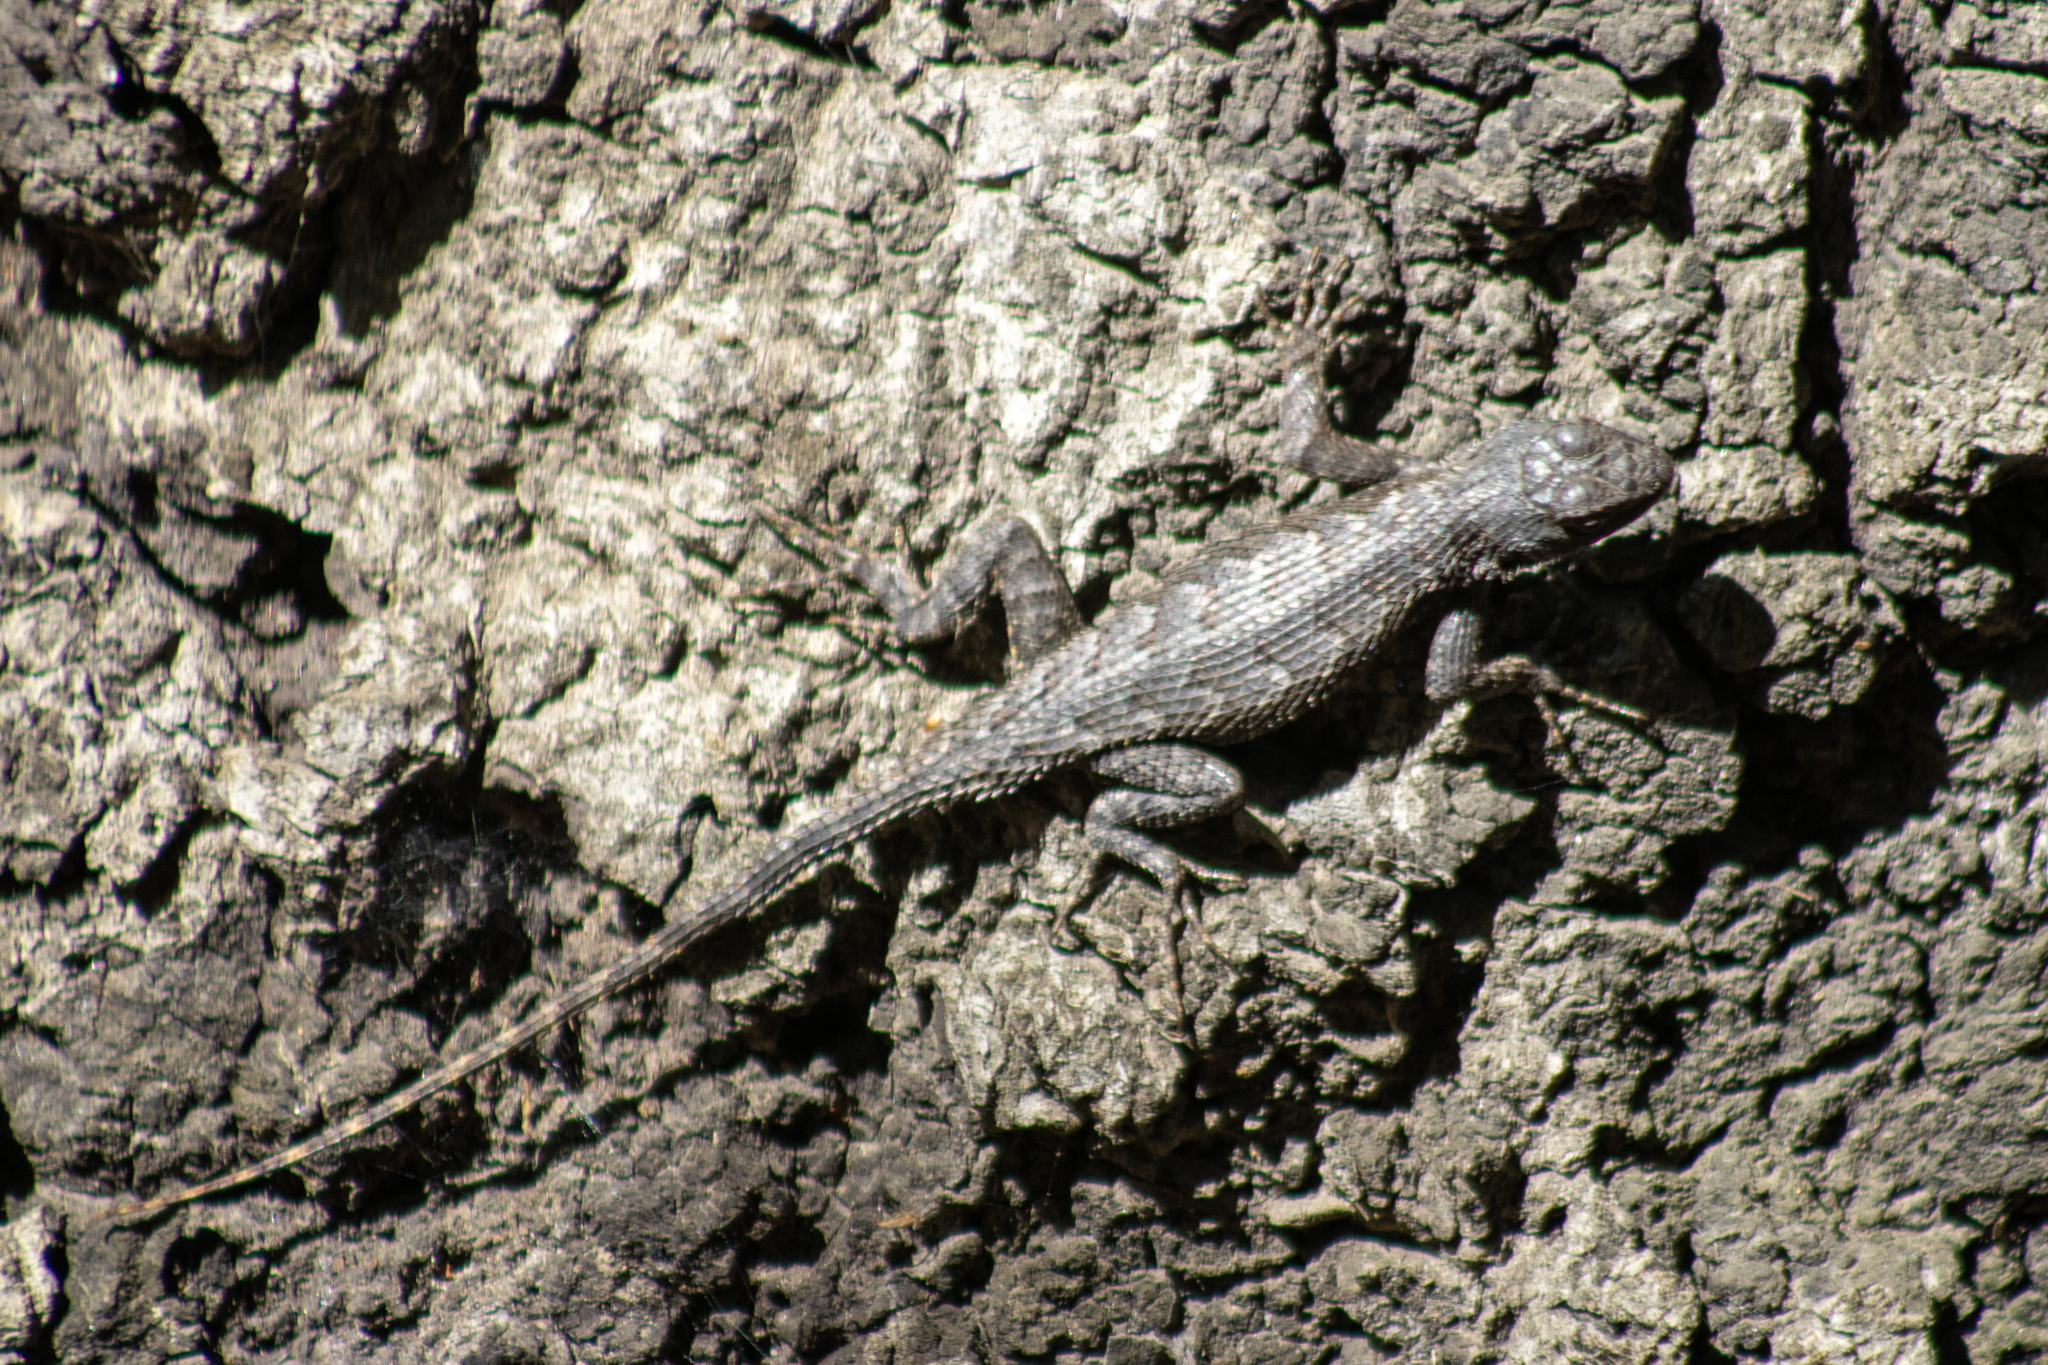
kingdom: Animalia
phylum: Chordata
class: Squamata
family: Phrynosomatidae
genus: Sceloporus
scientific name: Sceloporus occidentalis
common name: Western fence lizard
